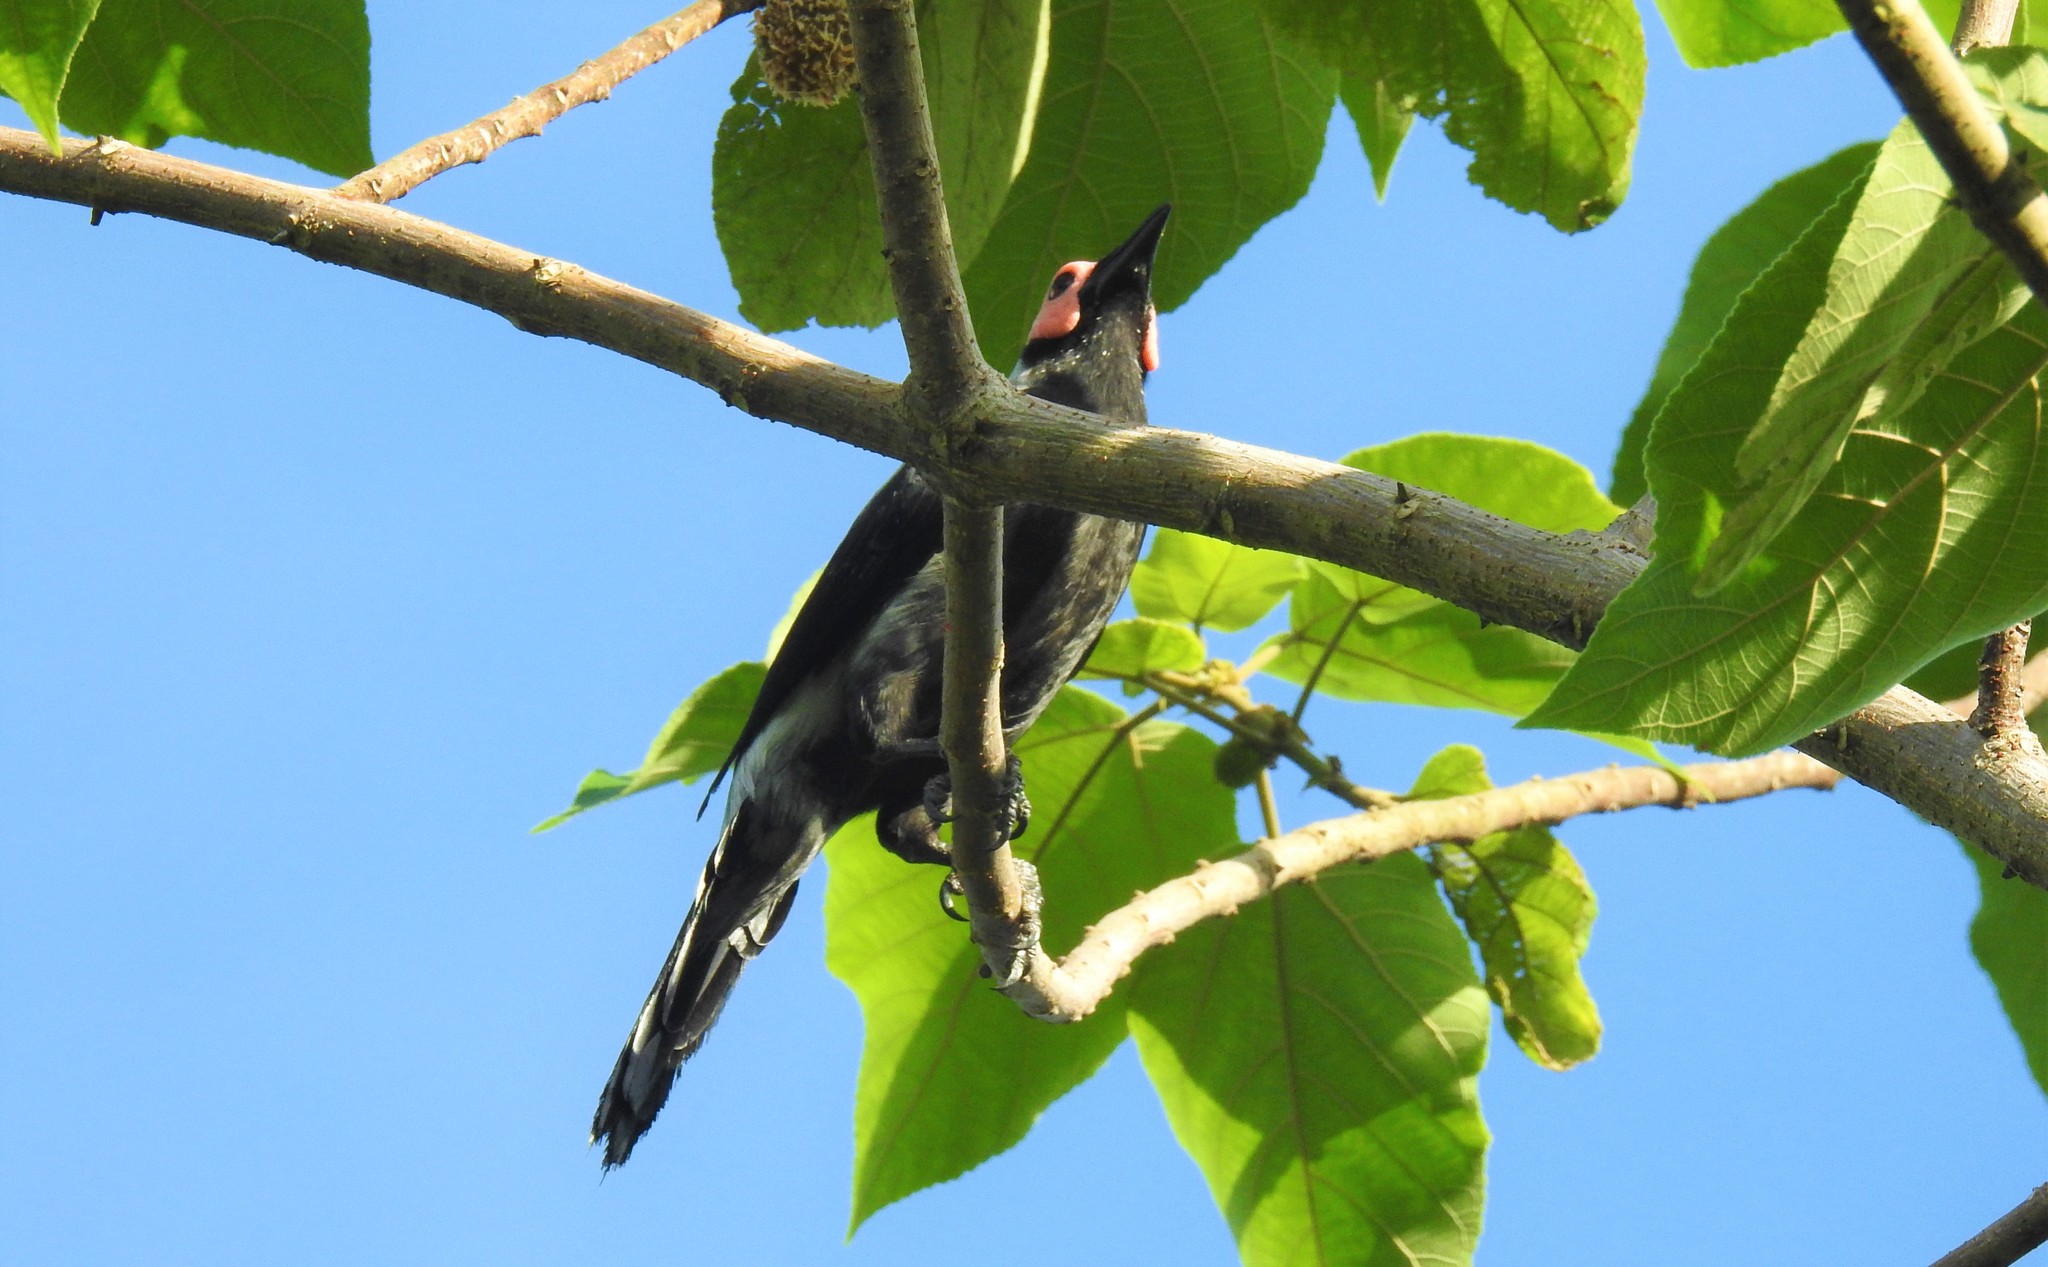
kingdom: Animalia
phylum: Chordata
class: Aves
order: Passeriformes
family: Sturnidae
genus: Sarcops
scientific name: Sarcops calvus
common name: Coleto
